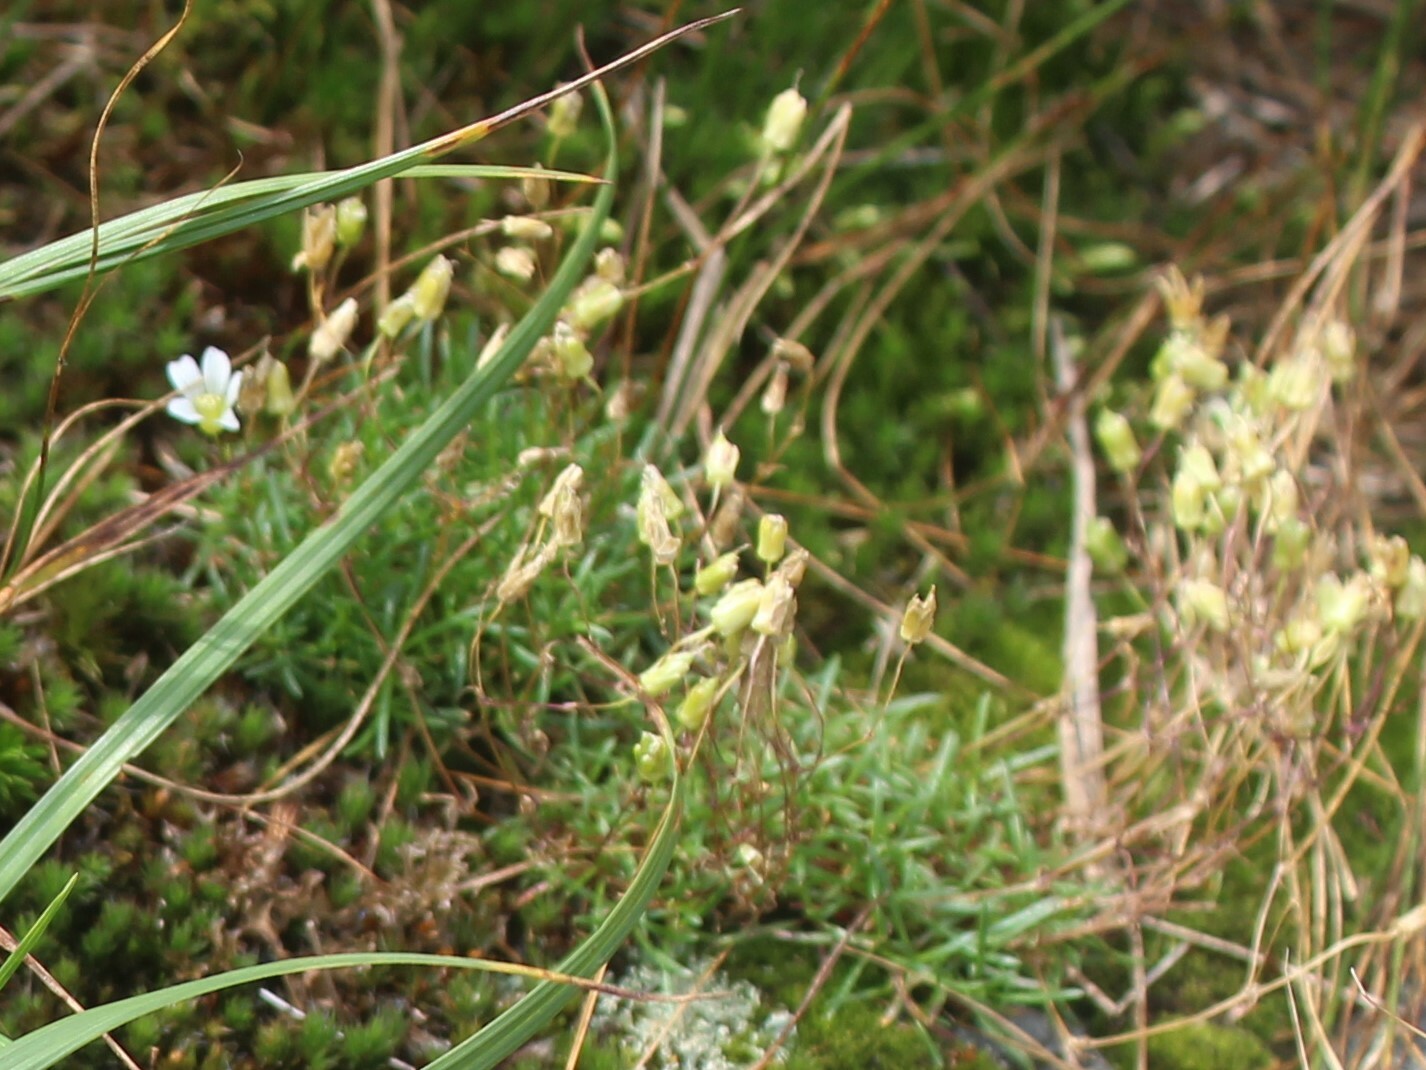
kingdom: Plantae
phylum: Tracheophyta
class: Magnoliopsida
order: Caryophyllales
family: Caryophyllaceae
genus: Geocarpon
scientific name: Geocarpon groenlandicum
